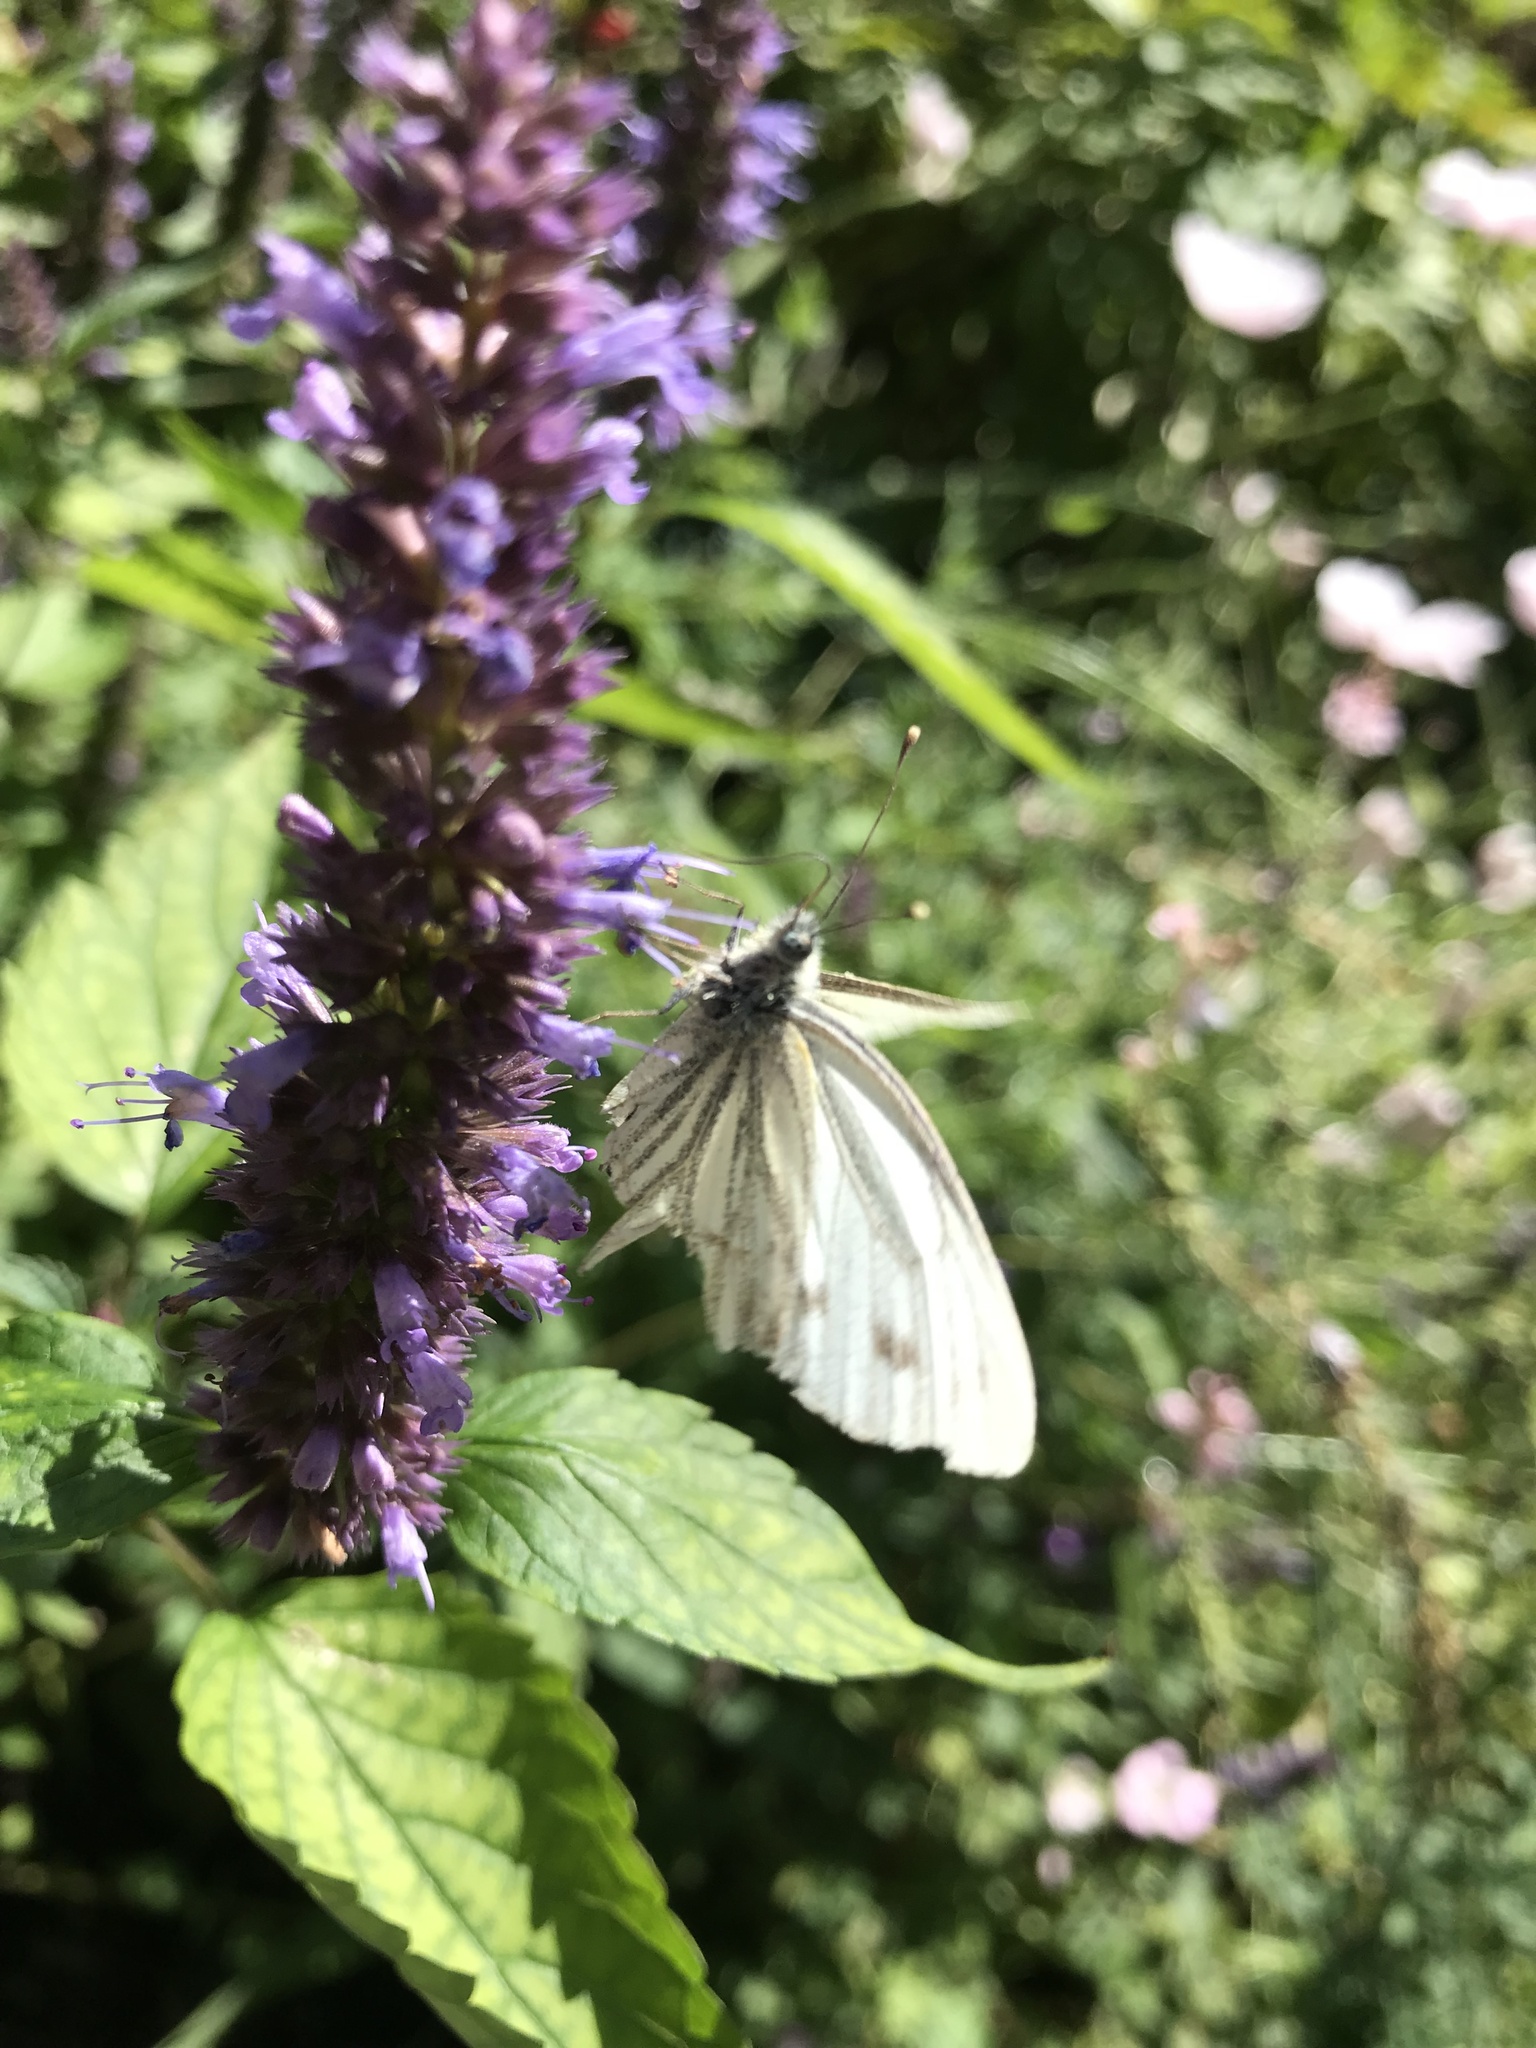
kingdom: Animalia
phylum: Arthropoda
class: Insecta
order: Lepidoptera
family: Pieridae
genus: Pieris
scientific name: Pieris napi
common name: Green-veined white
